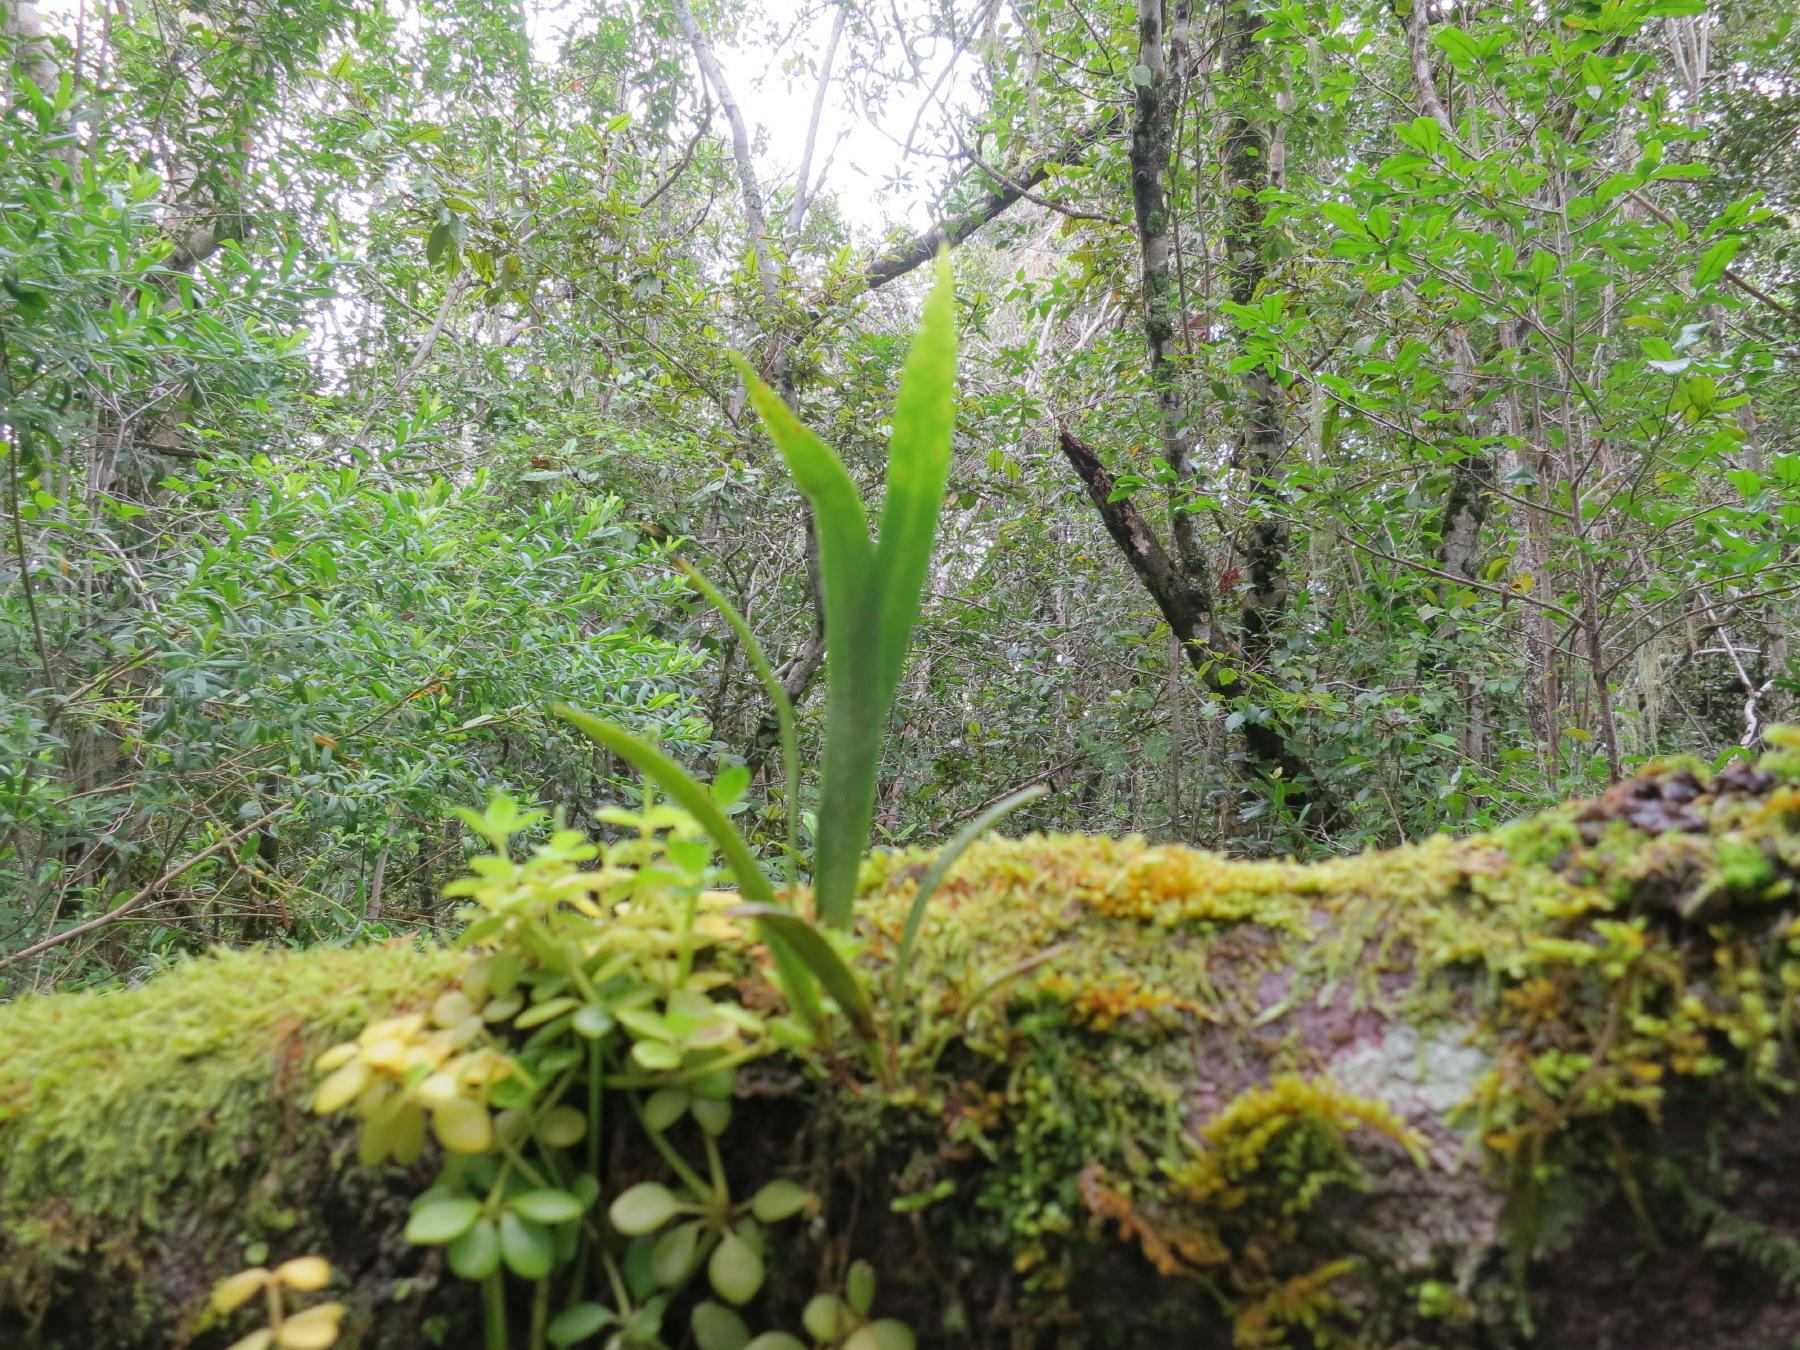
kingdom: Plantae
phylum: Tracheophyta
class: Polypodiopsida
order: Polypodiales
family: Polypodiaceae
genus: Pleopeltis
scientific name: Pleopeltis macrocarpa
